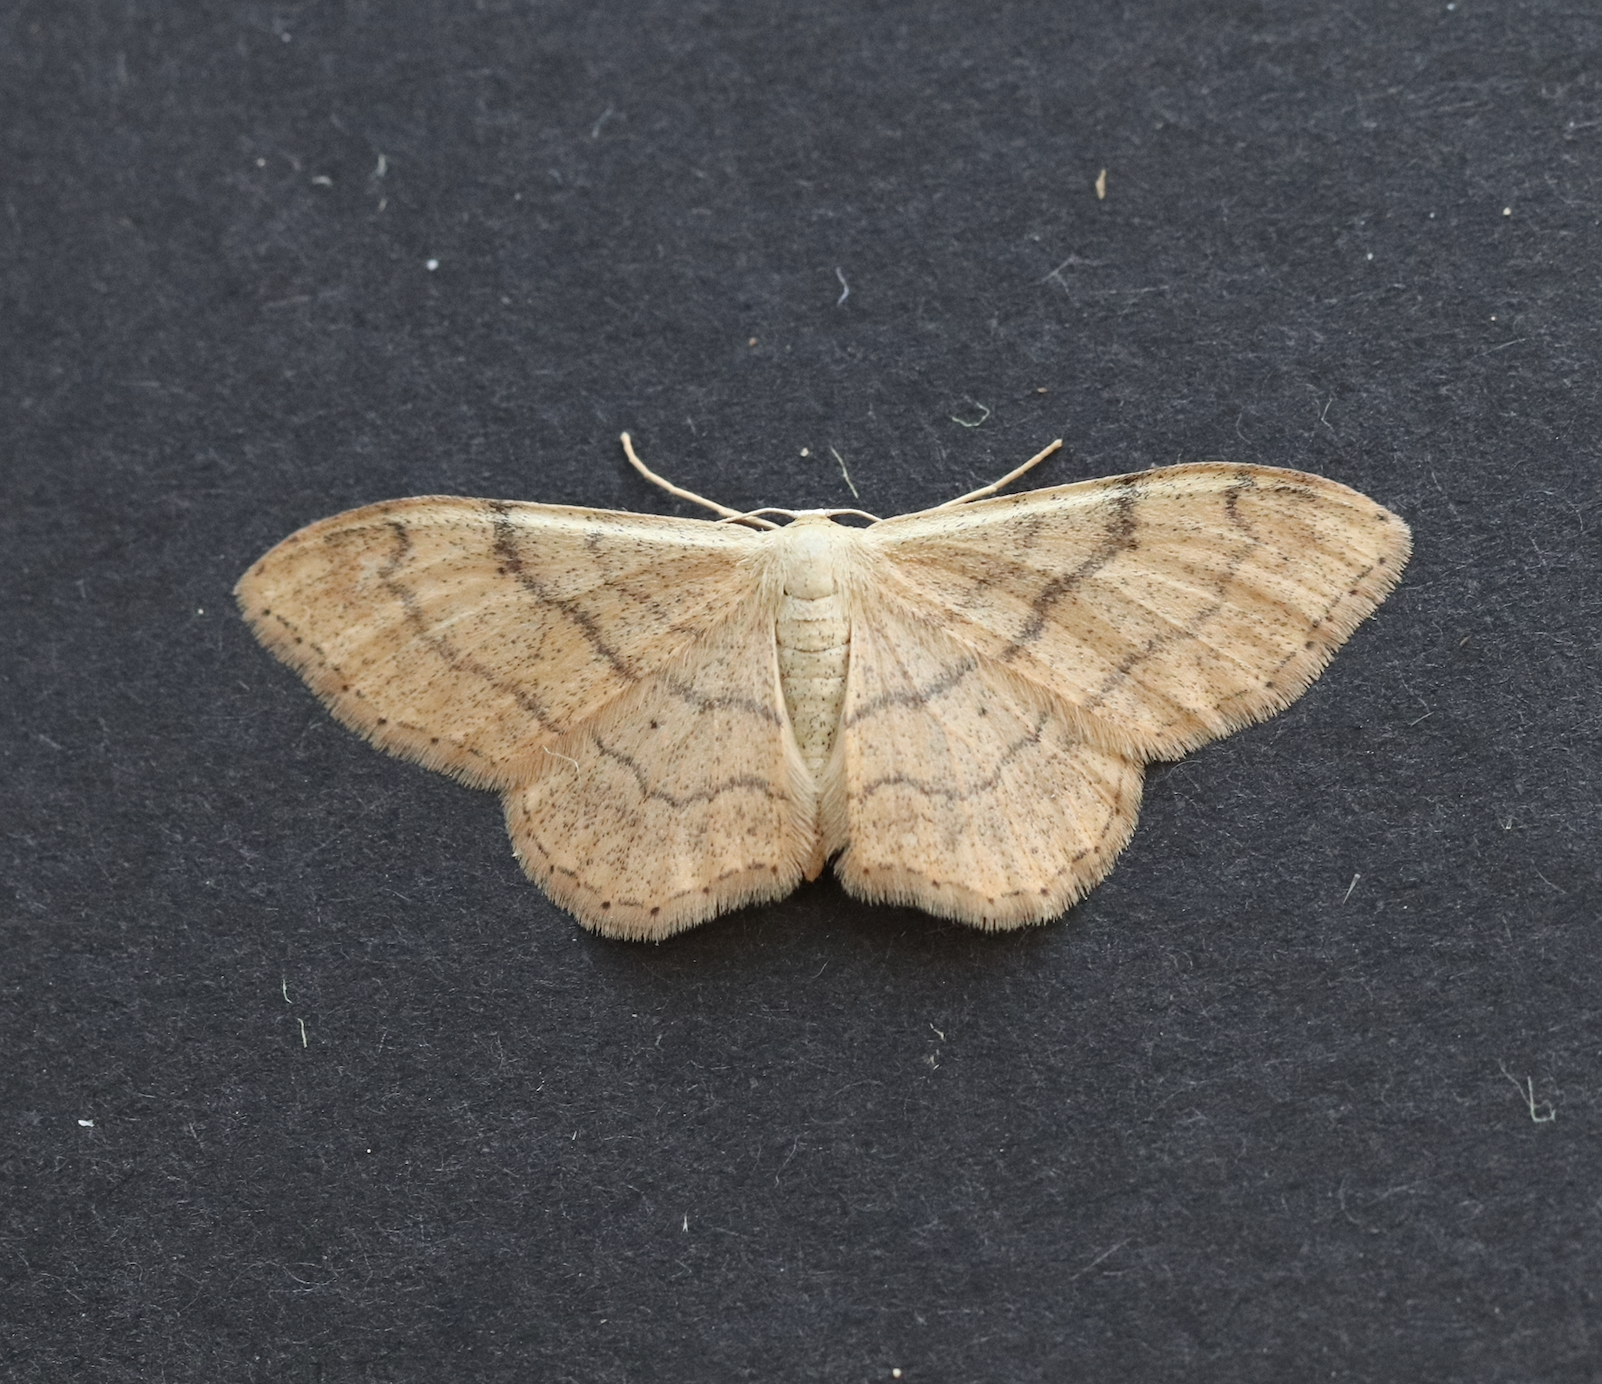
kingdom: Animalia
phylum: Arthropoda
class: Insecta
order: Lepidoptera
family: Geometridae
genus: Idaea
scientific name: Idaea aversata
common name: Riband wave
